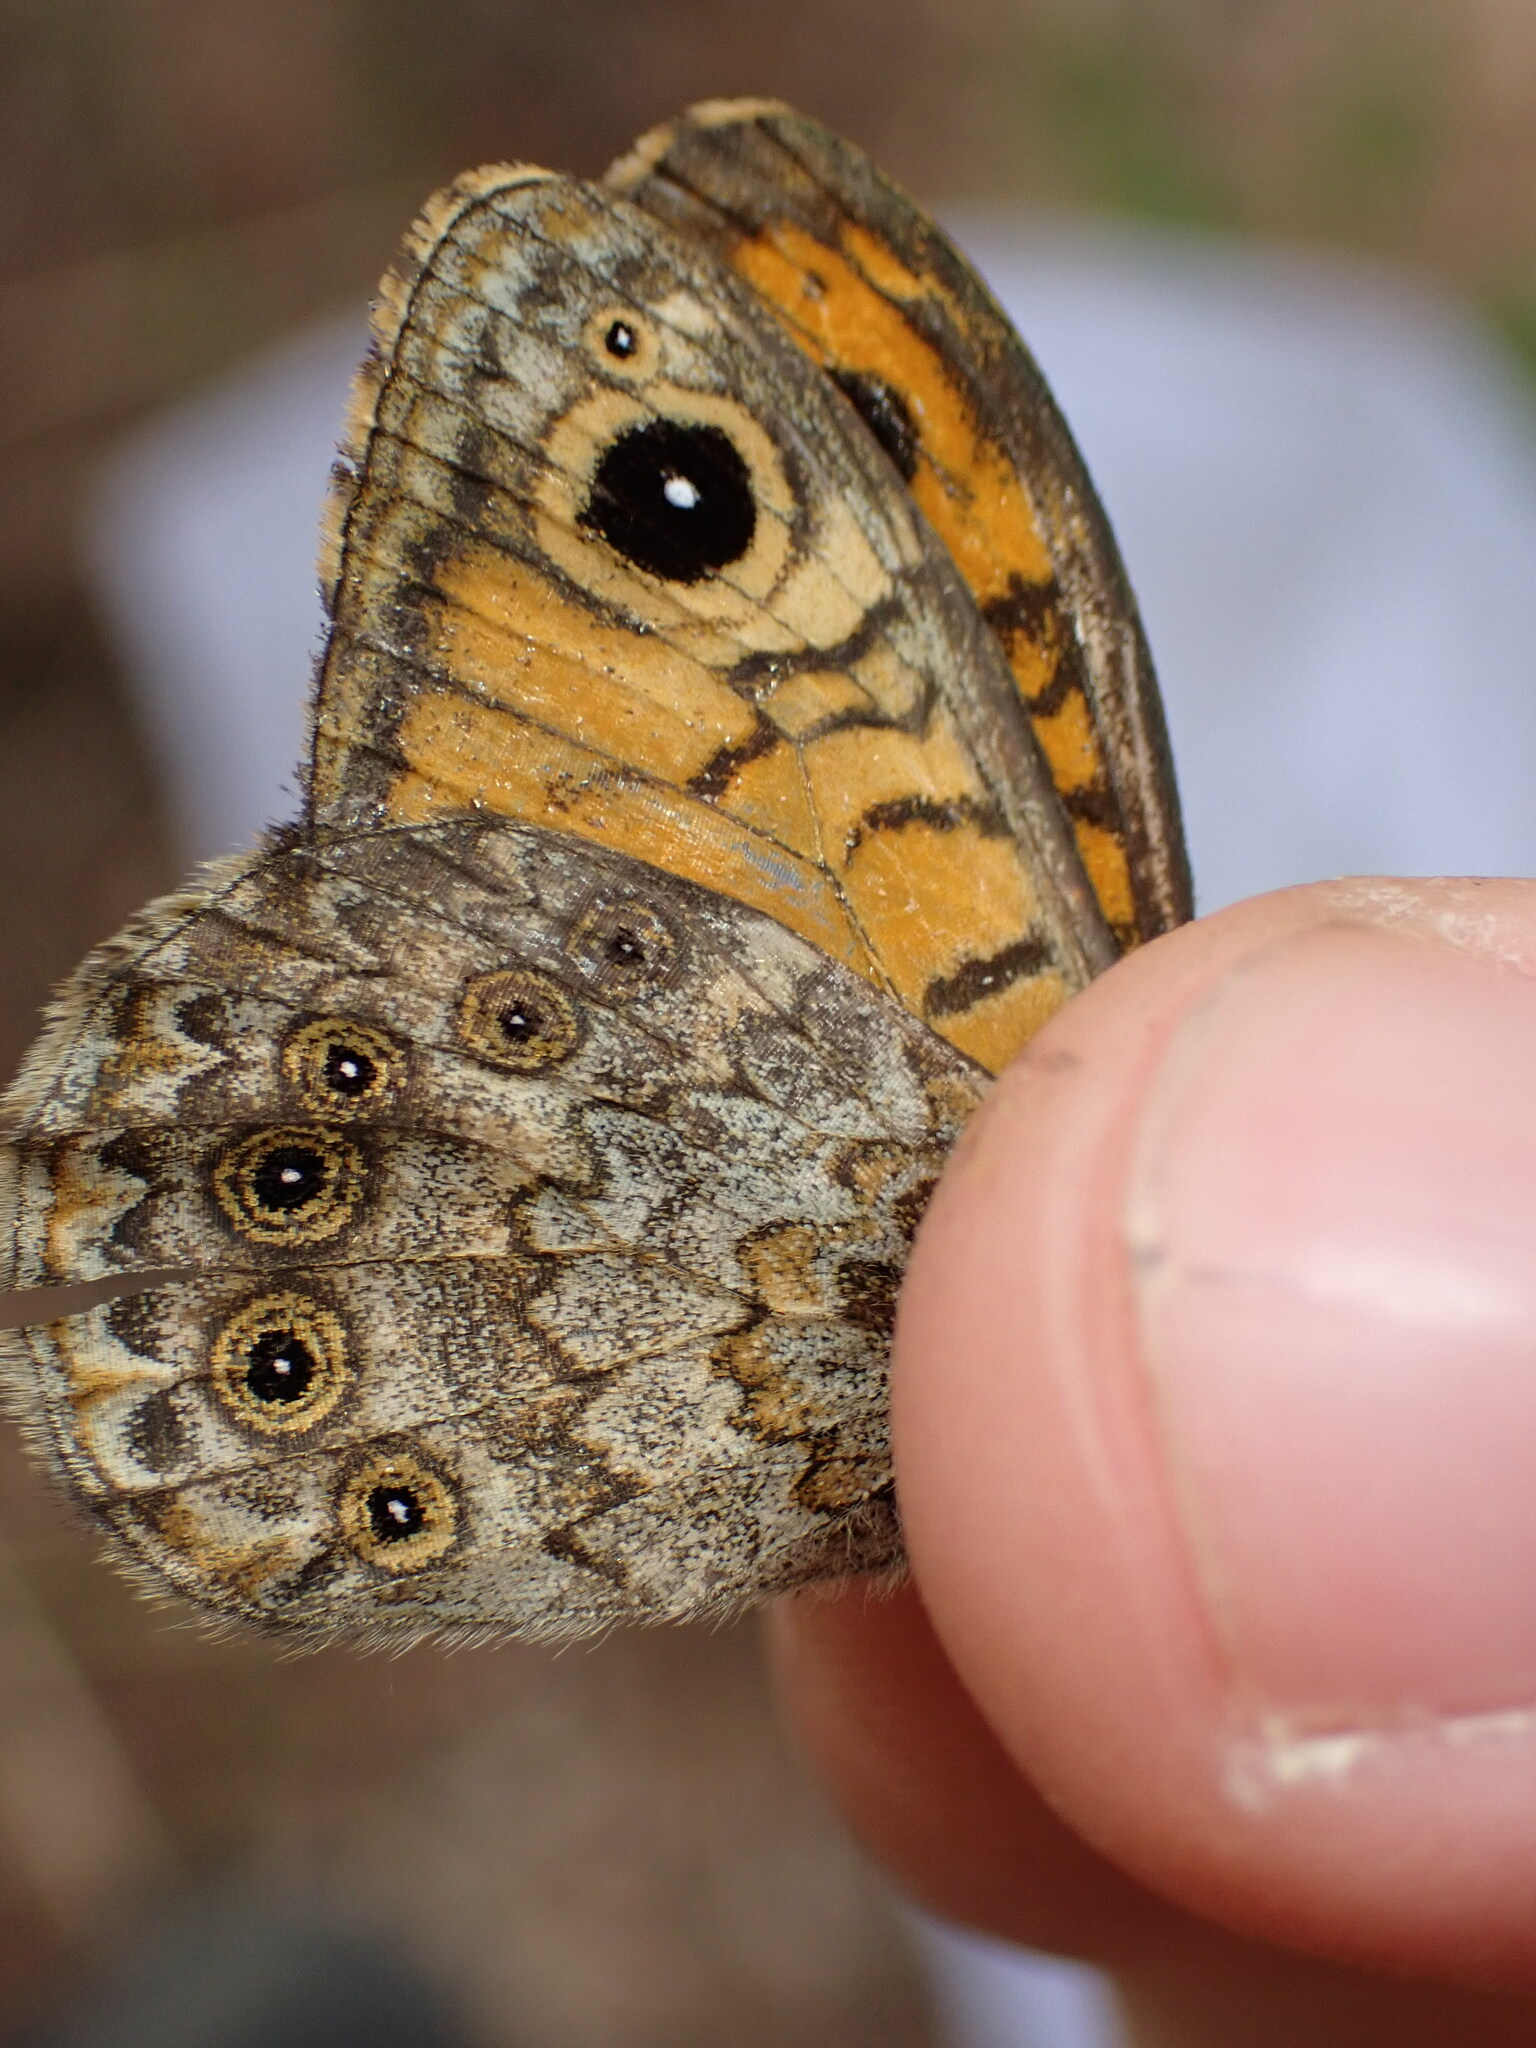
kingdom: Animalia
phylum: Arthropoda
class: Insecta
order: Lepidoptera
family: Nymphalidae
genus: Pararge
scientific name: Pararge Lasiommata megera
